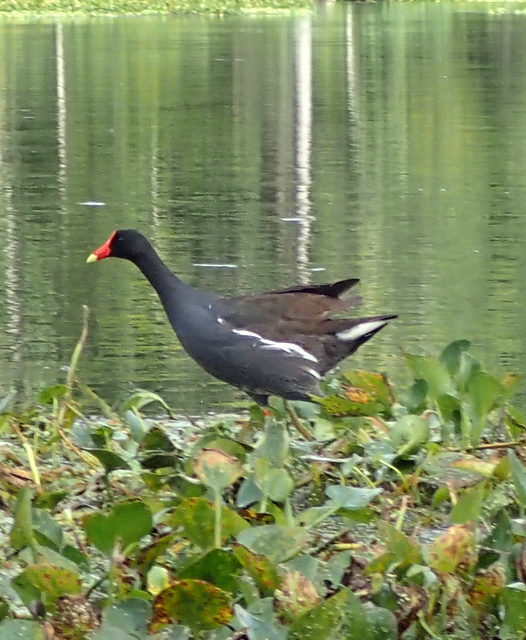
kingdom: Animalia
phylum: Chordata
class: Aves
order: Gruiformes
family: Rallidae
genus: Gallinula
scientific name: Gallinula chloropus
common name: Common moorhen
